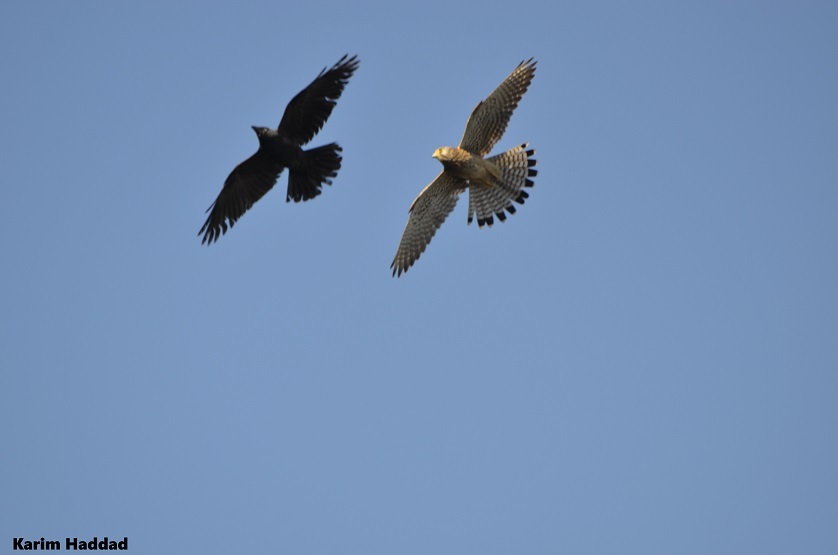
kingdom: Animalia
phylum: Chordata
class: Aves
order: Falconiformes
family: Falconidae
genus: Falco
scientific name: Falco tinnunculus
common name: Common kestrel
